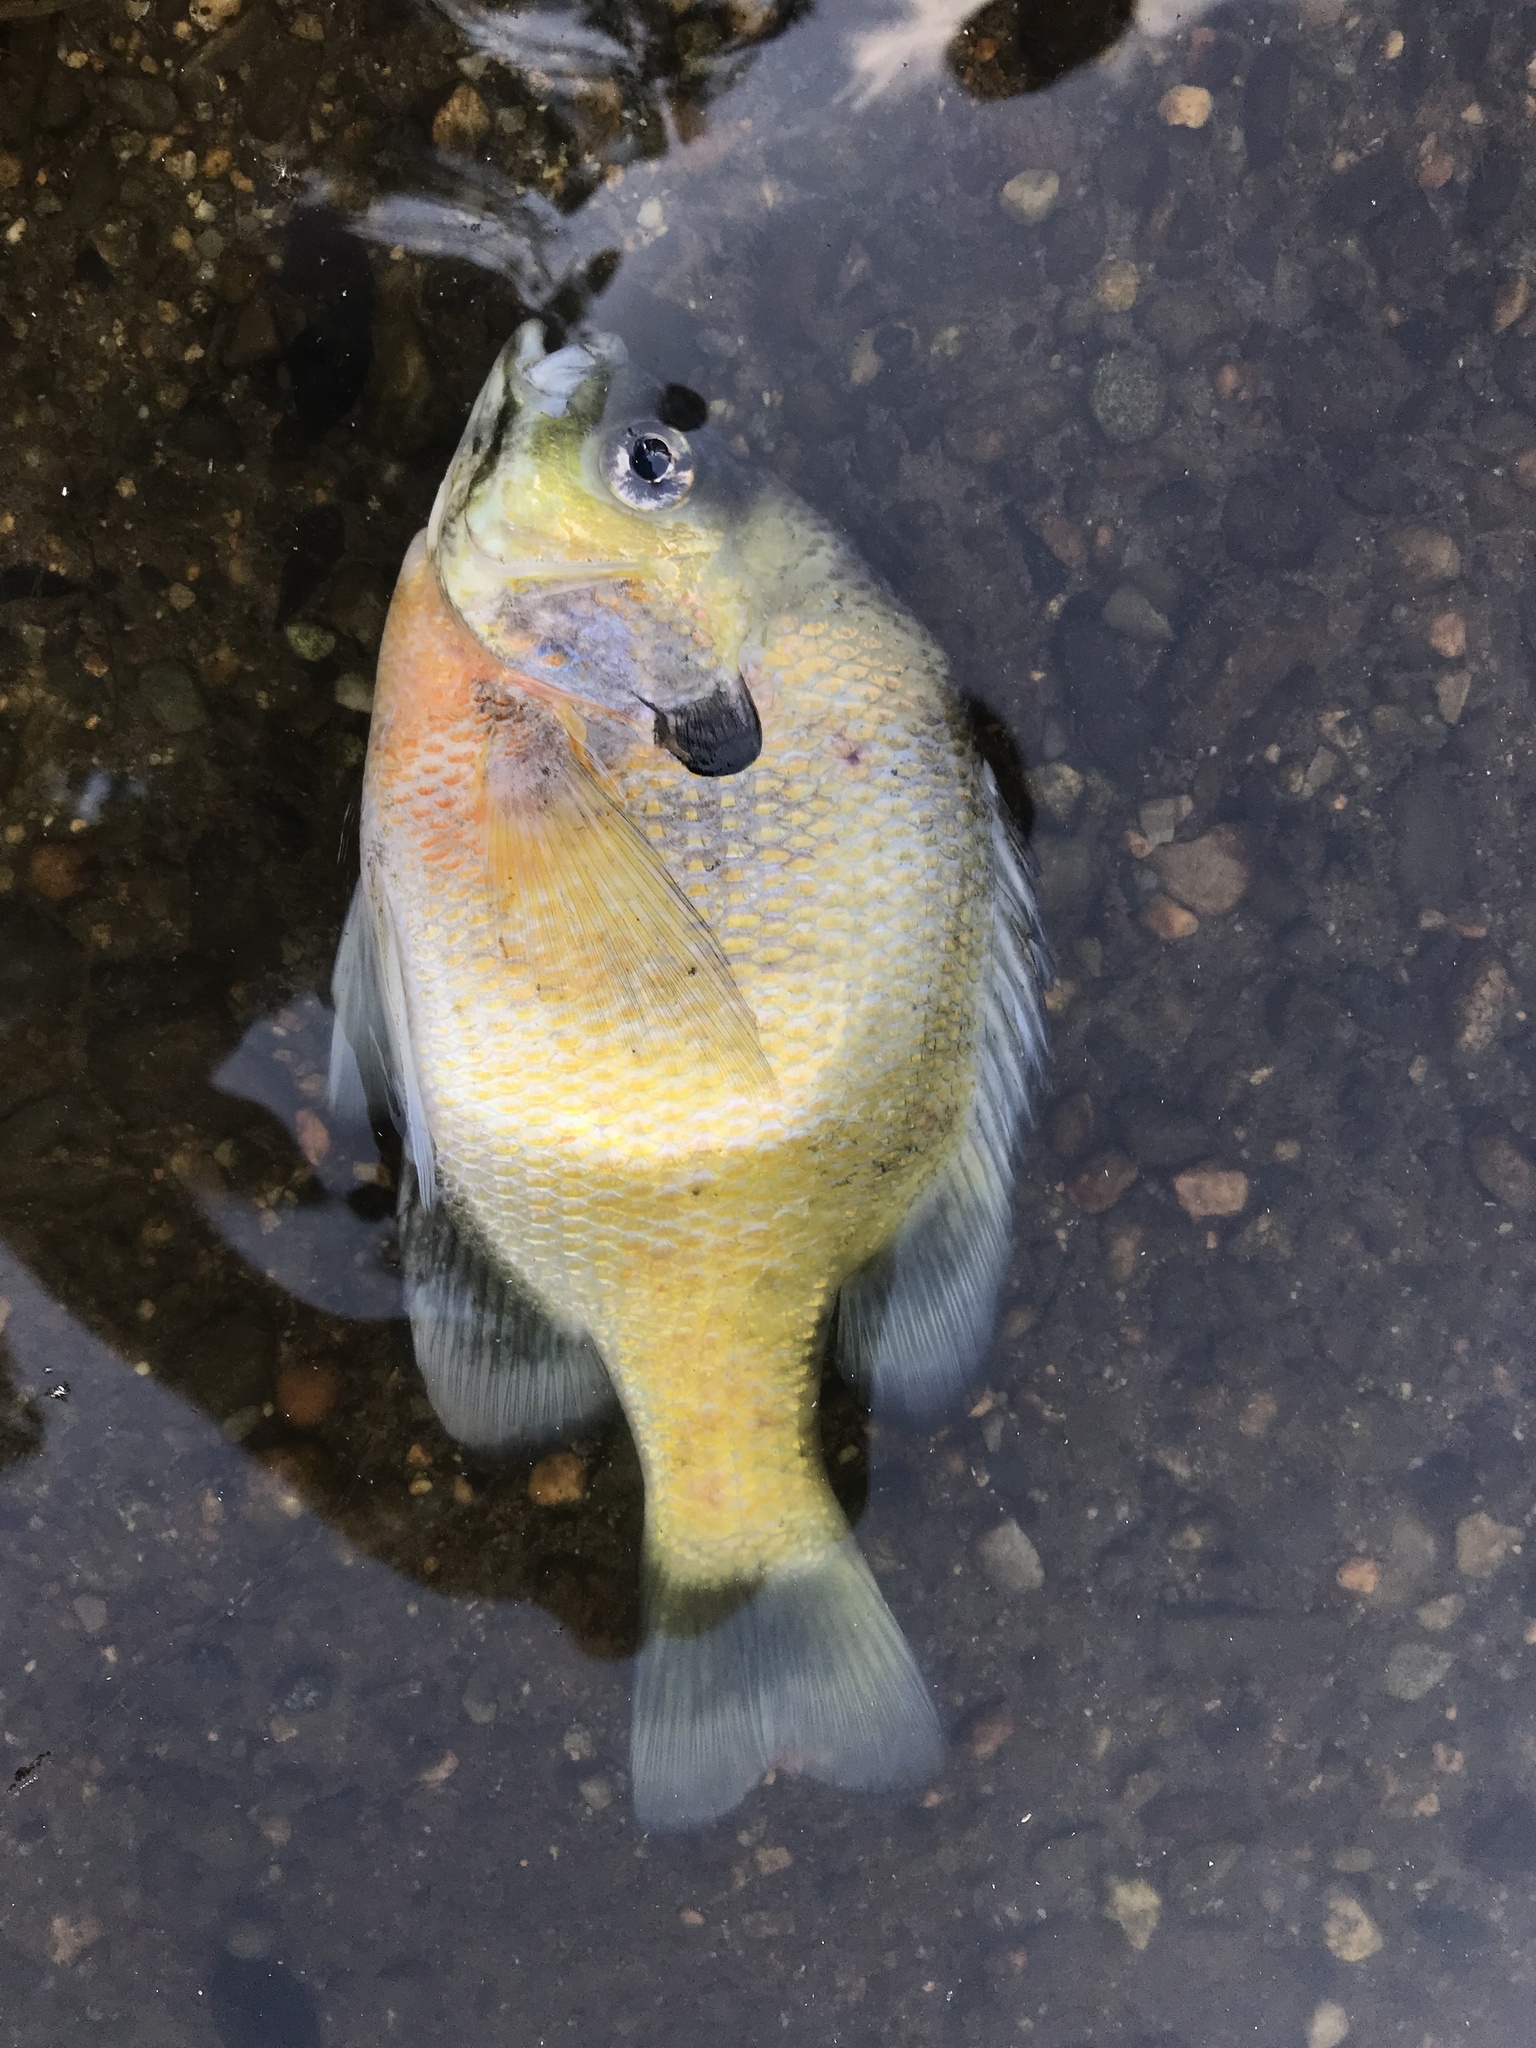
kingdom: Animalia
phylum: Chordata
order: Perciformes
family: Centrarchidae
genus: Lepomis
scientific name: Lepomis macrochirus
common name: Bluegill
